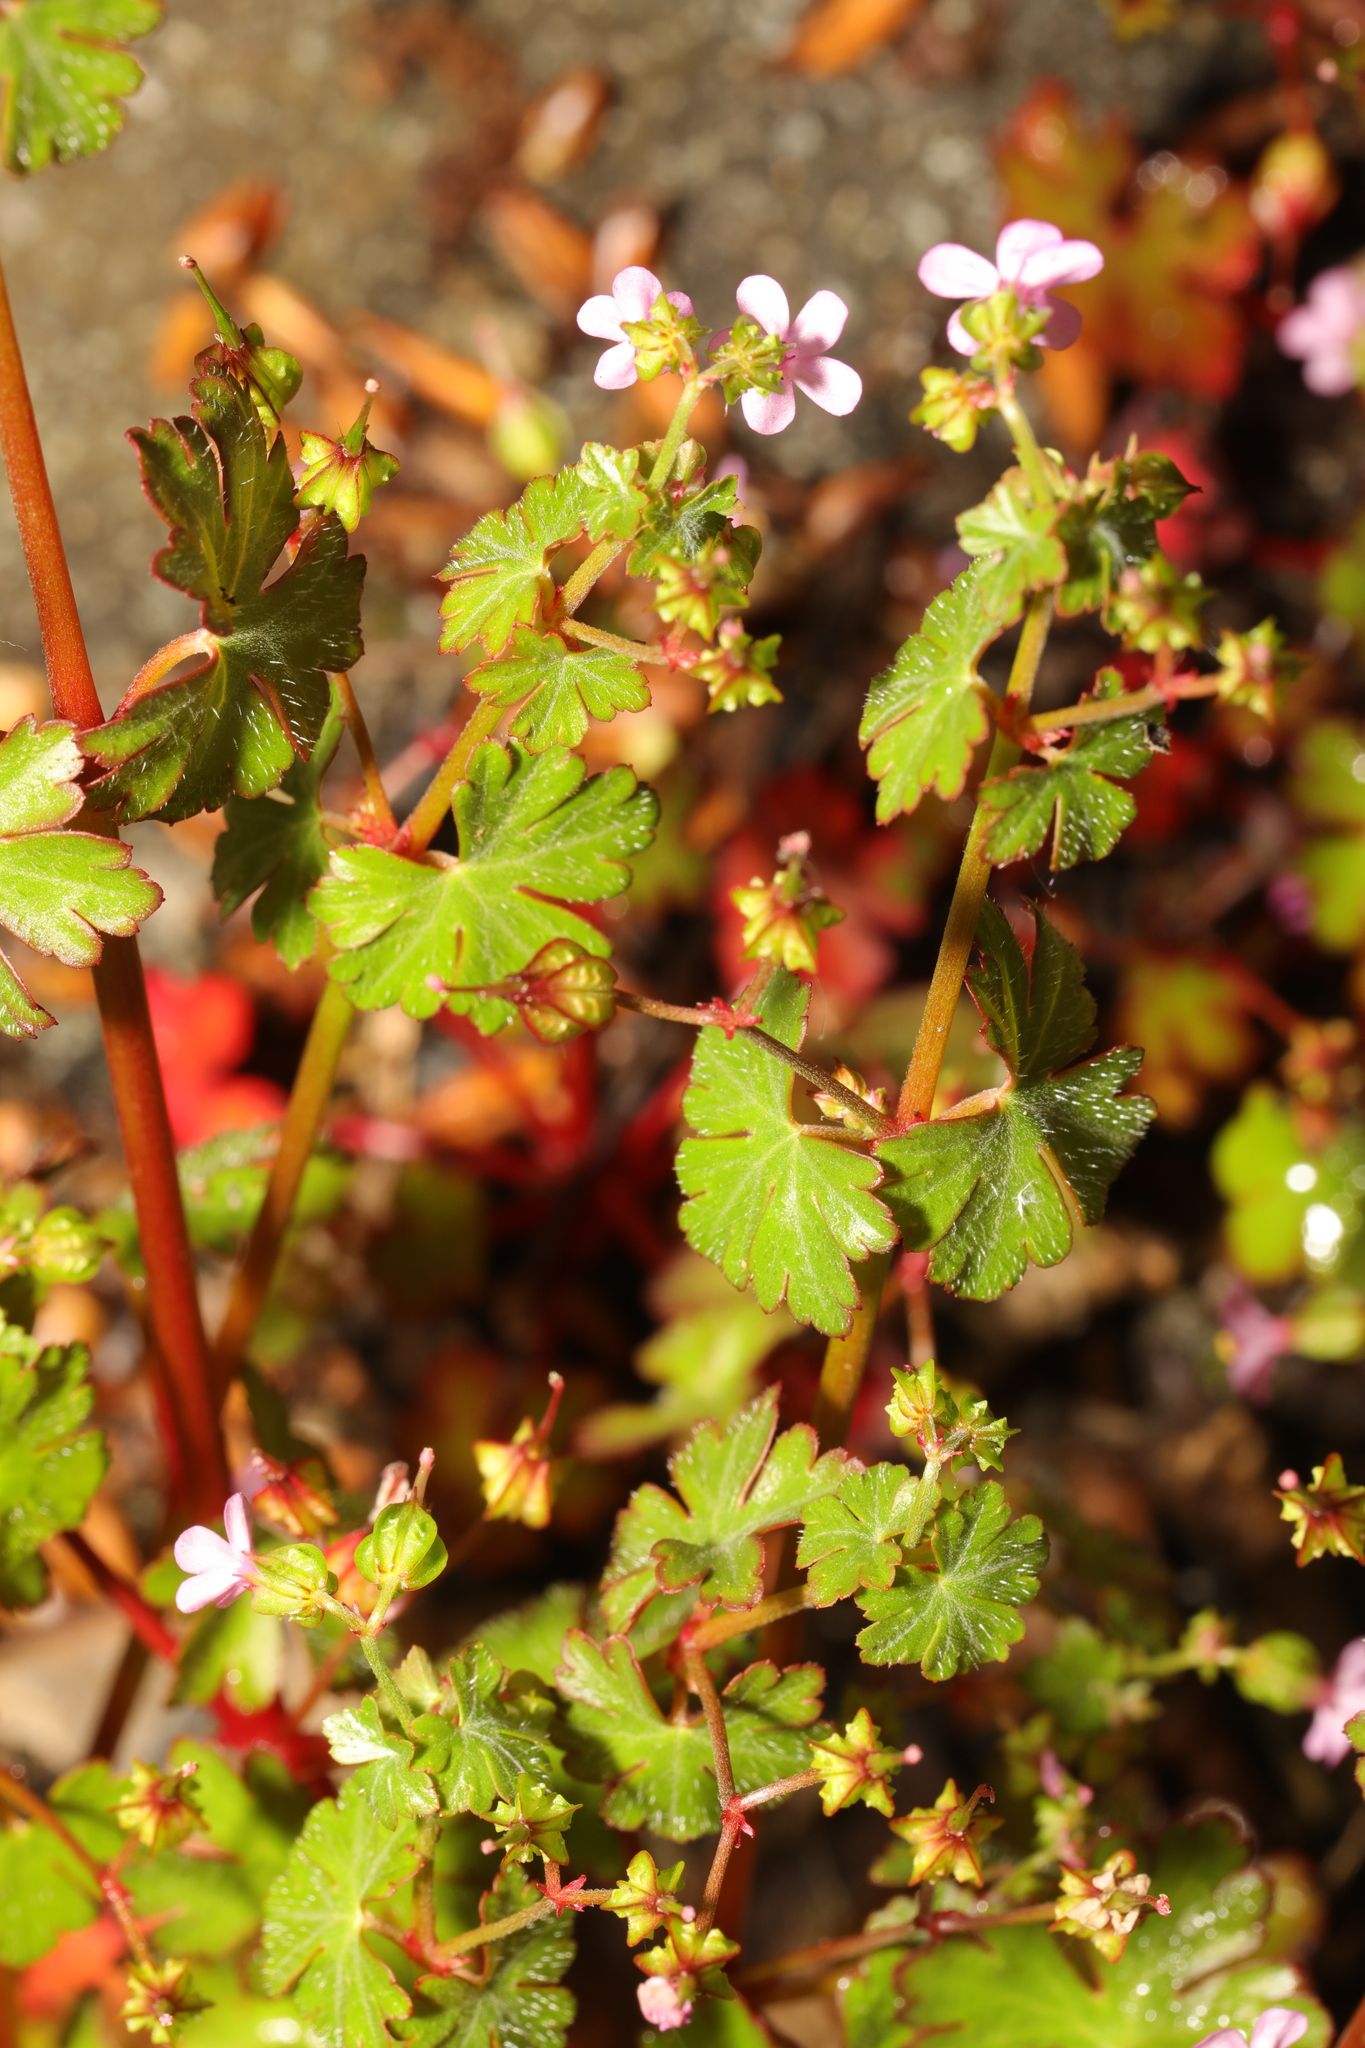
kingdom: Plantae
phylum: Tracheophyta
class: Magnoliopsida
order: Geraniales
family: Geraniaceae
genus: Geranium
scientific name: Geranium lucidum
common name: Shining crane's-bill
